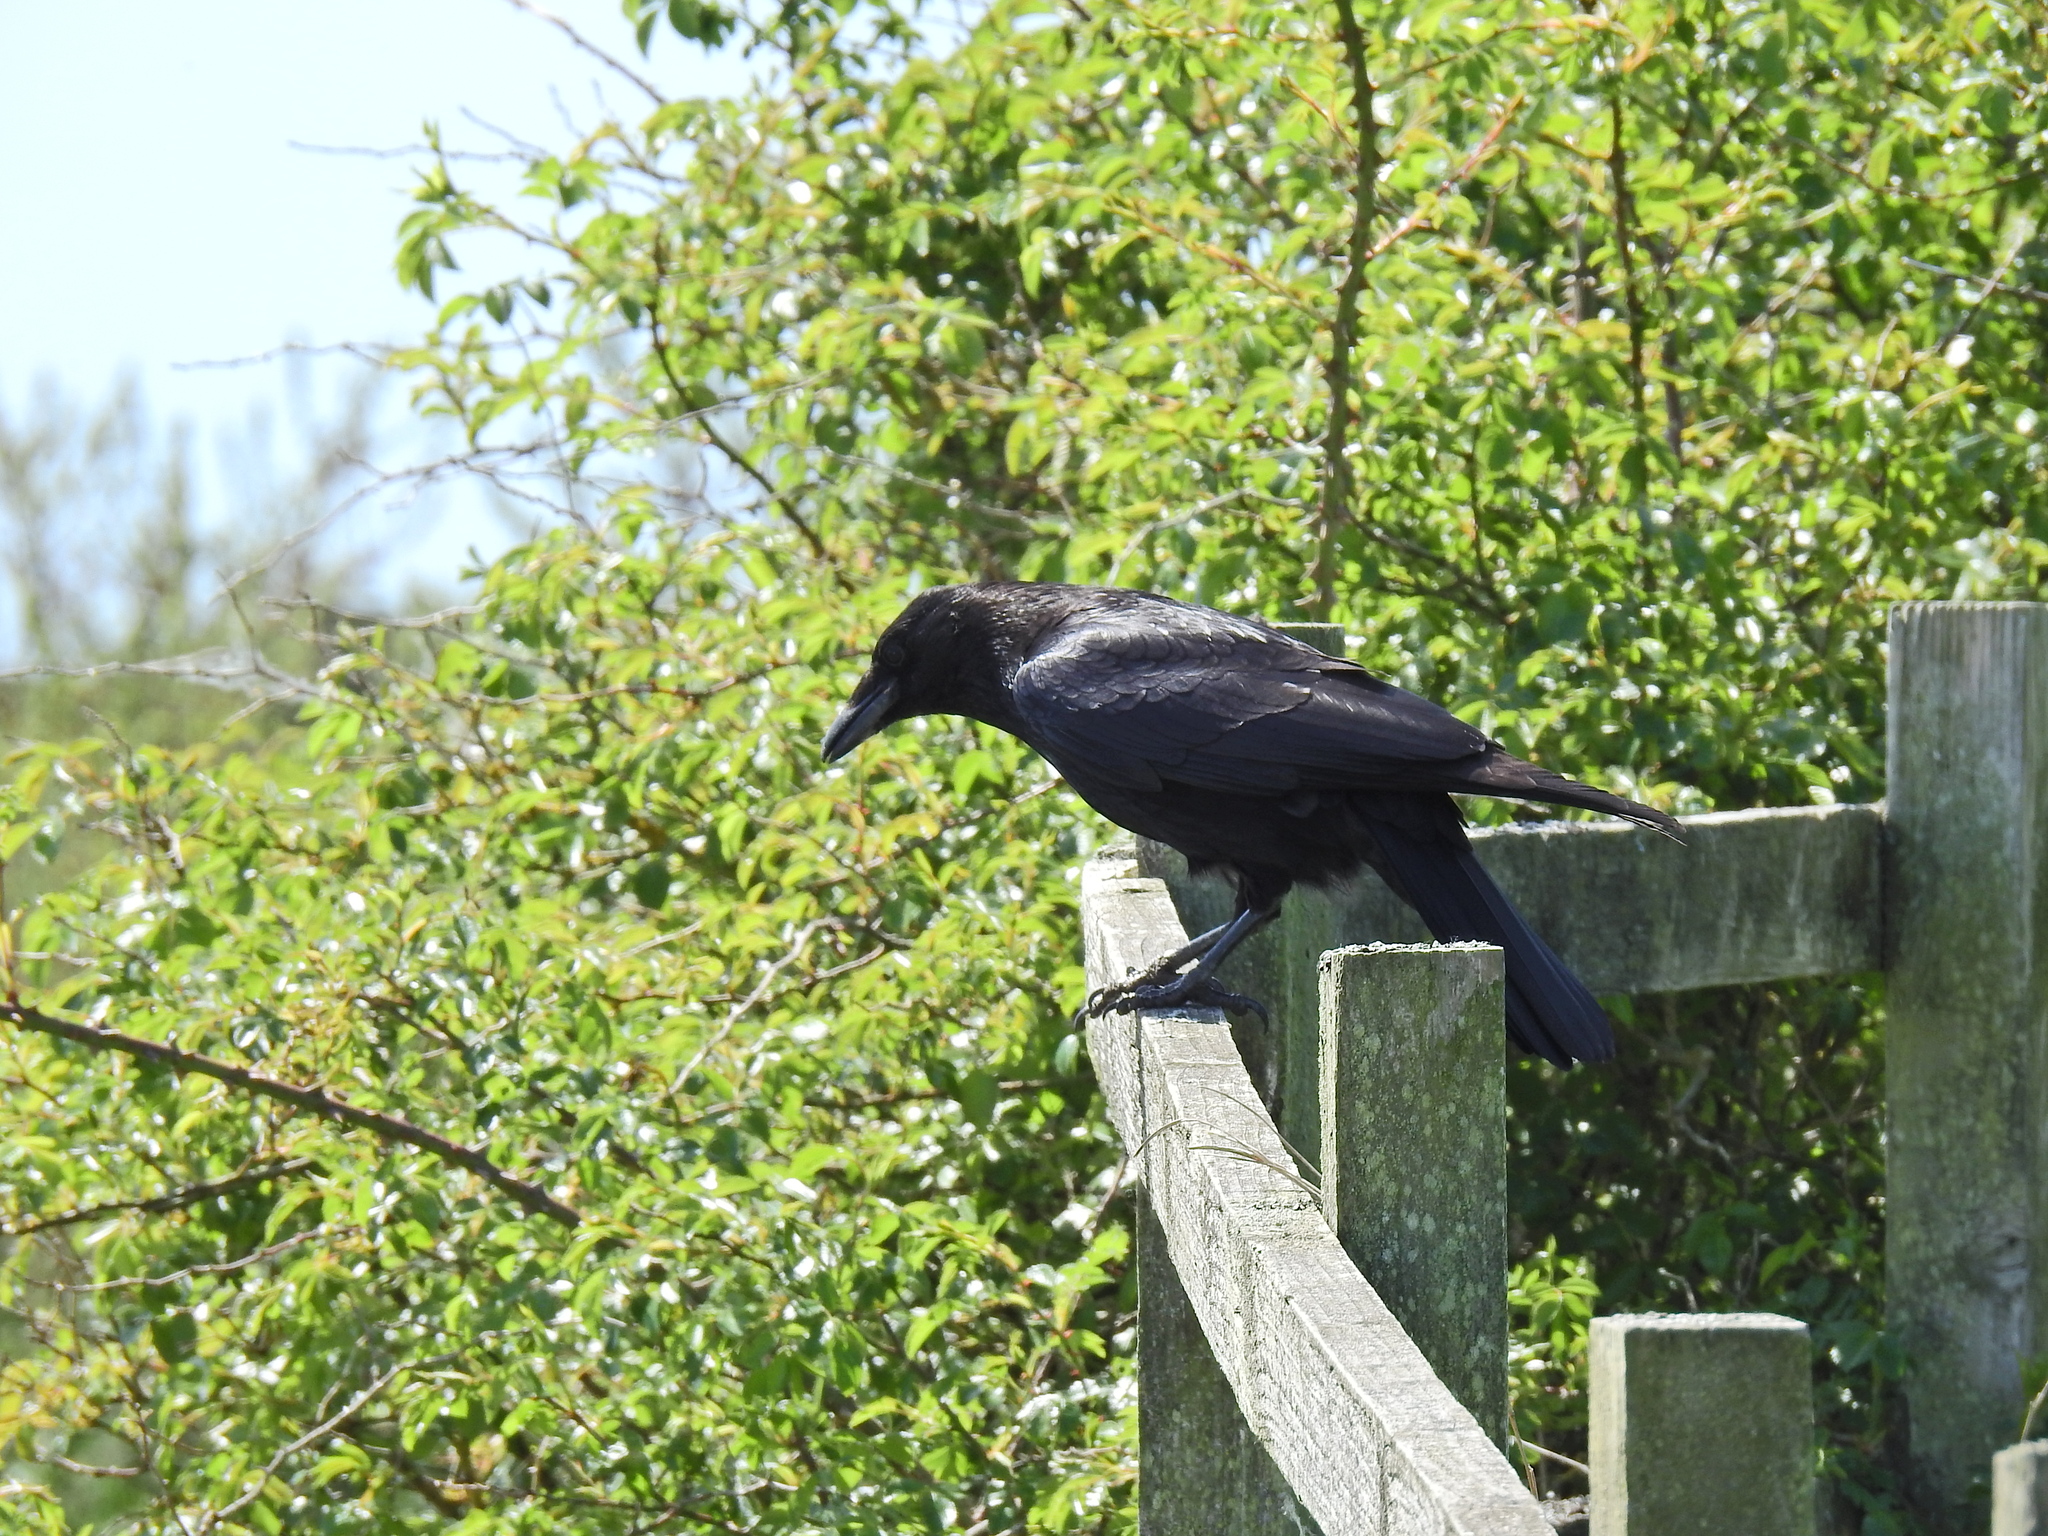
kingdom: Animalia
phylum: Chordata
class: Aves
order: Passeriformes
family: Corvidae
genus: Corvus
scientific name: Corvus corone
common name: Carrion crow
